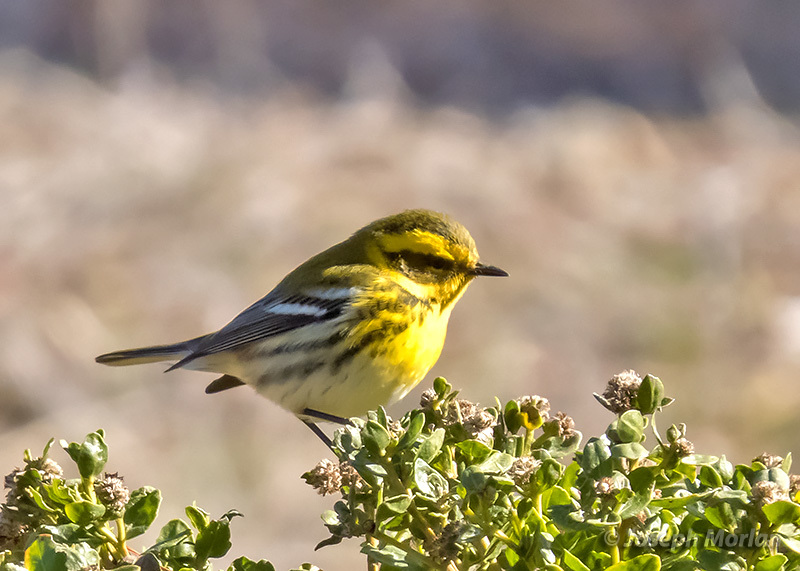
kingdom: Animalia
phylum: Chordata
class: Aves
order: Passeriformes
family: Parulidae
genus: Setophaga
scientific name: Setophaga townsendi
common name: Townsend's warbler
